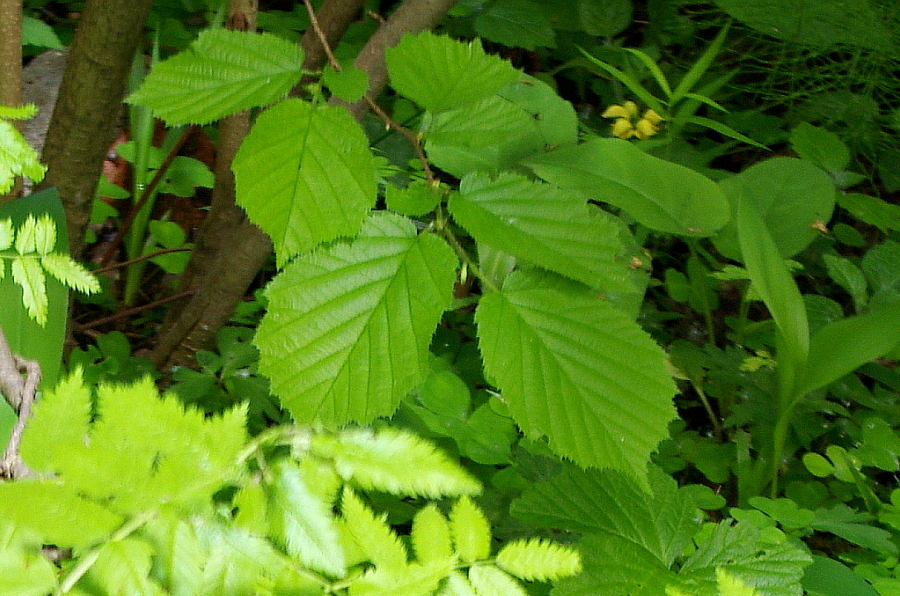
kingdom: Plantae
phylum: Tracheophyta
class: Magnoliopsida
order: Fagales
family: Betulaceae
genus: Corylus
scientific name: Corylus avellana
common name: European hazel
